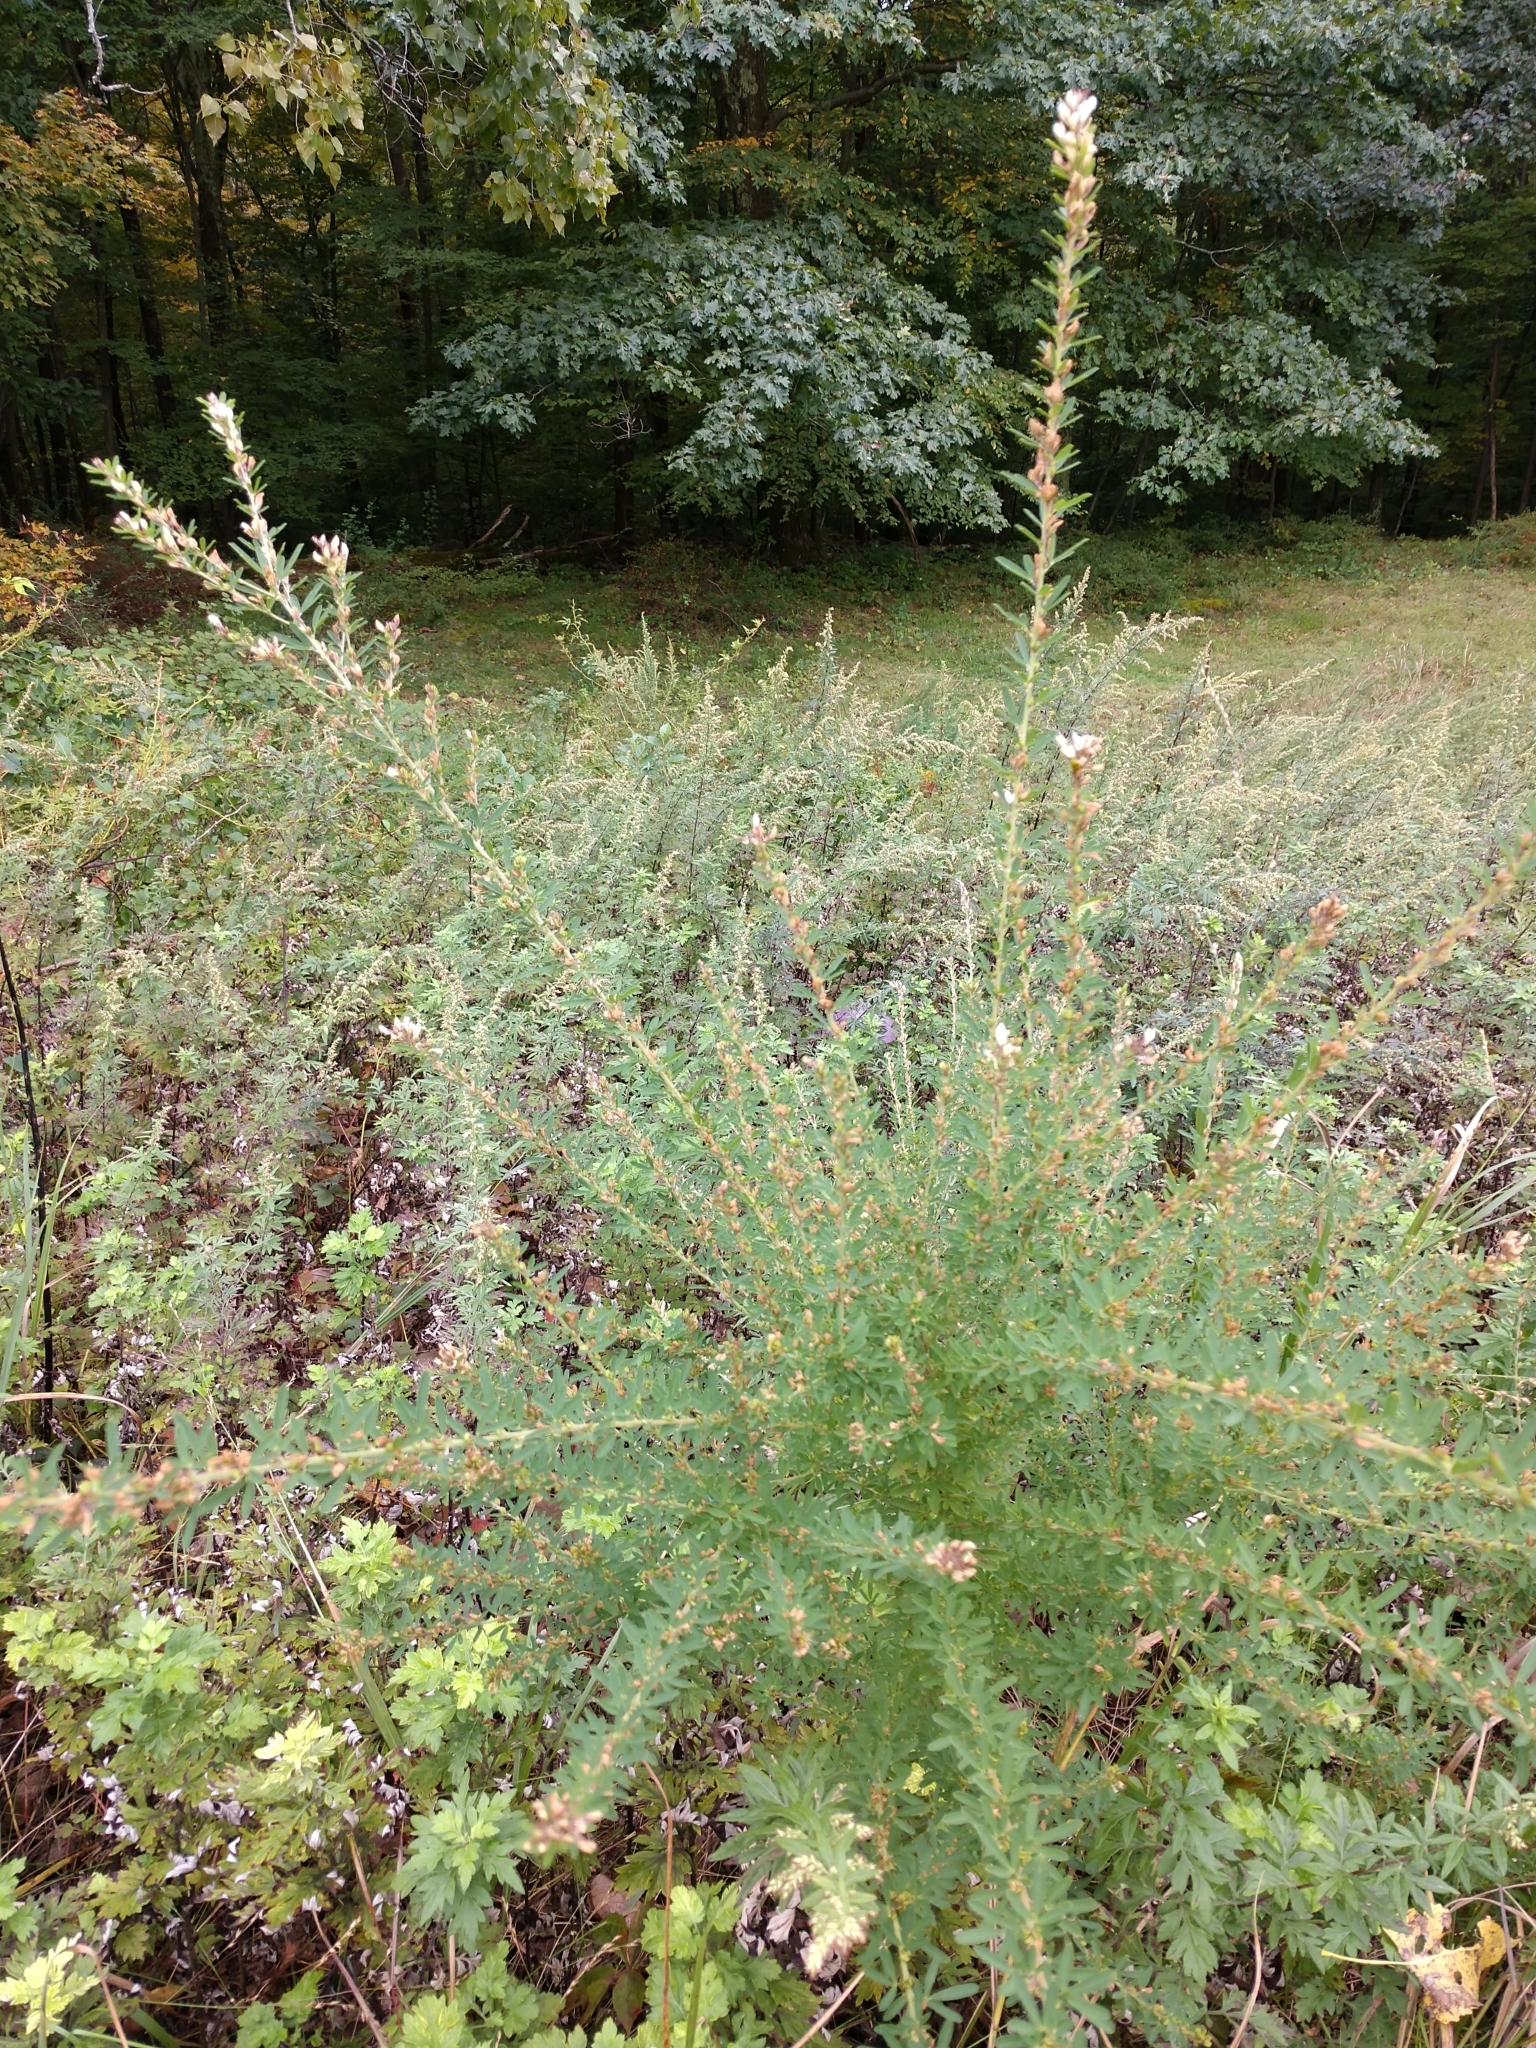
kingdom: Plantae
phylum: Tracheophyta
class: Magnoliopsida
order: Fabales
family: Fabaceae
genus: Lespedeza
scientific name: Lespedeza cuneata
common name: Chinese bush-clover
